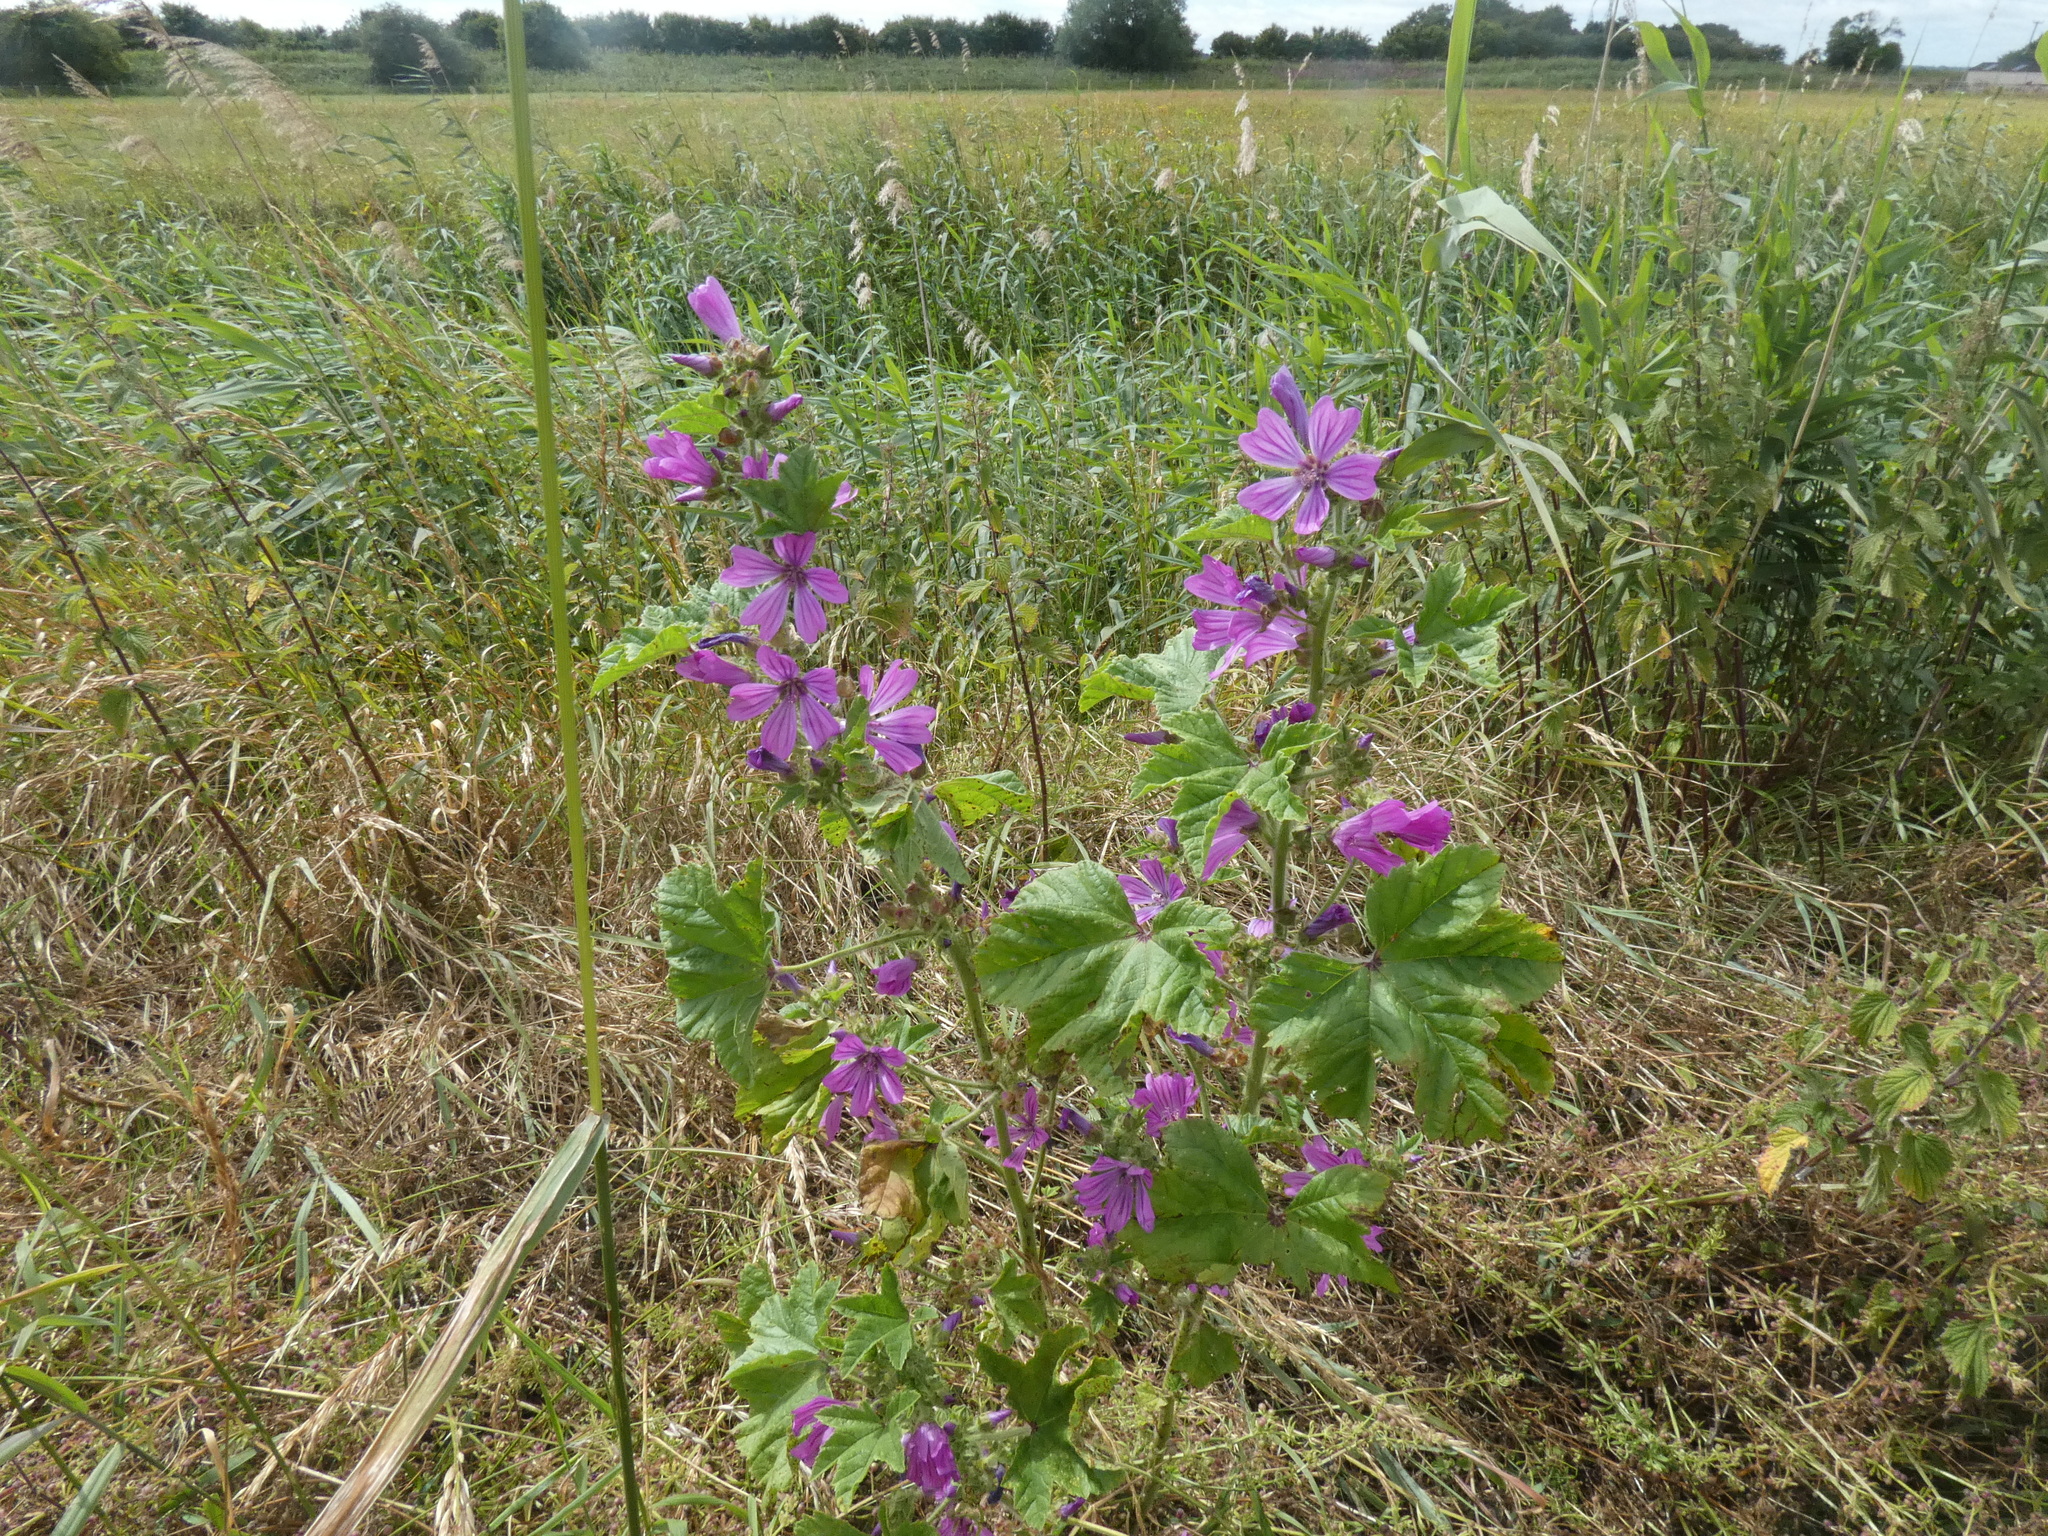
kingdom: Plantae
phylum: Tracheophyta
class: Magnoliopsida
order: Malvales
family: Malvaceae
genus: Malva
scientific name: Malva sylvestris
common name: Common mallow
